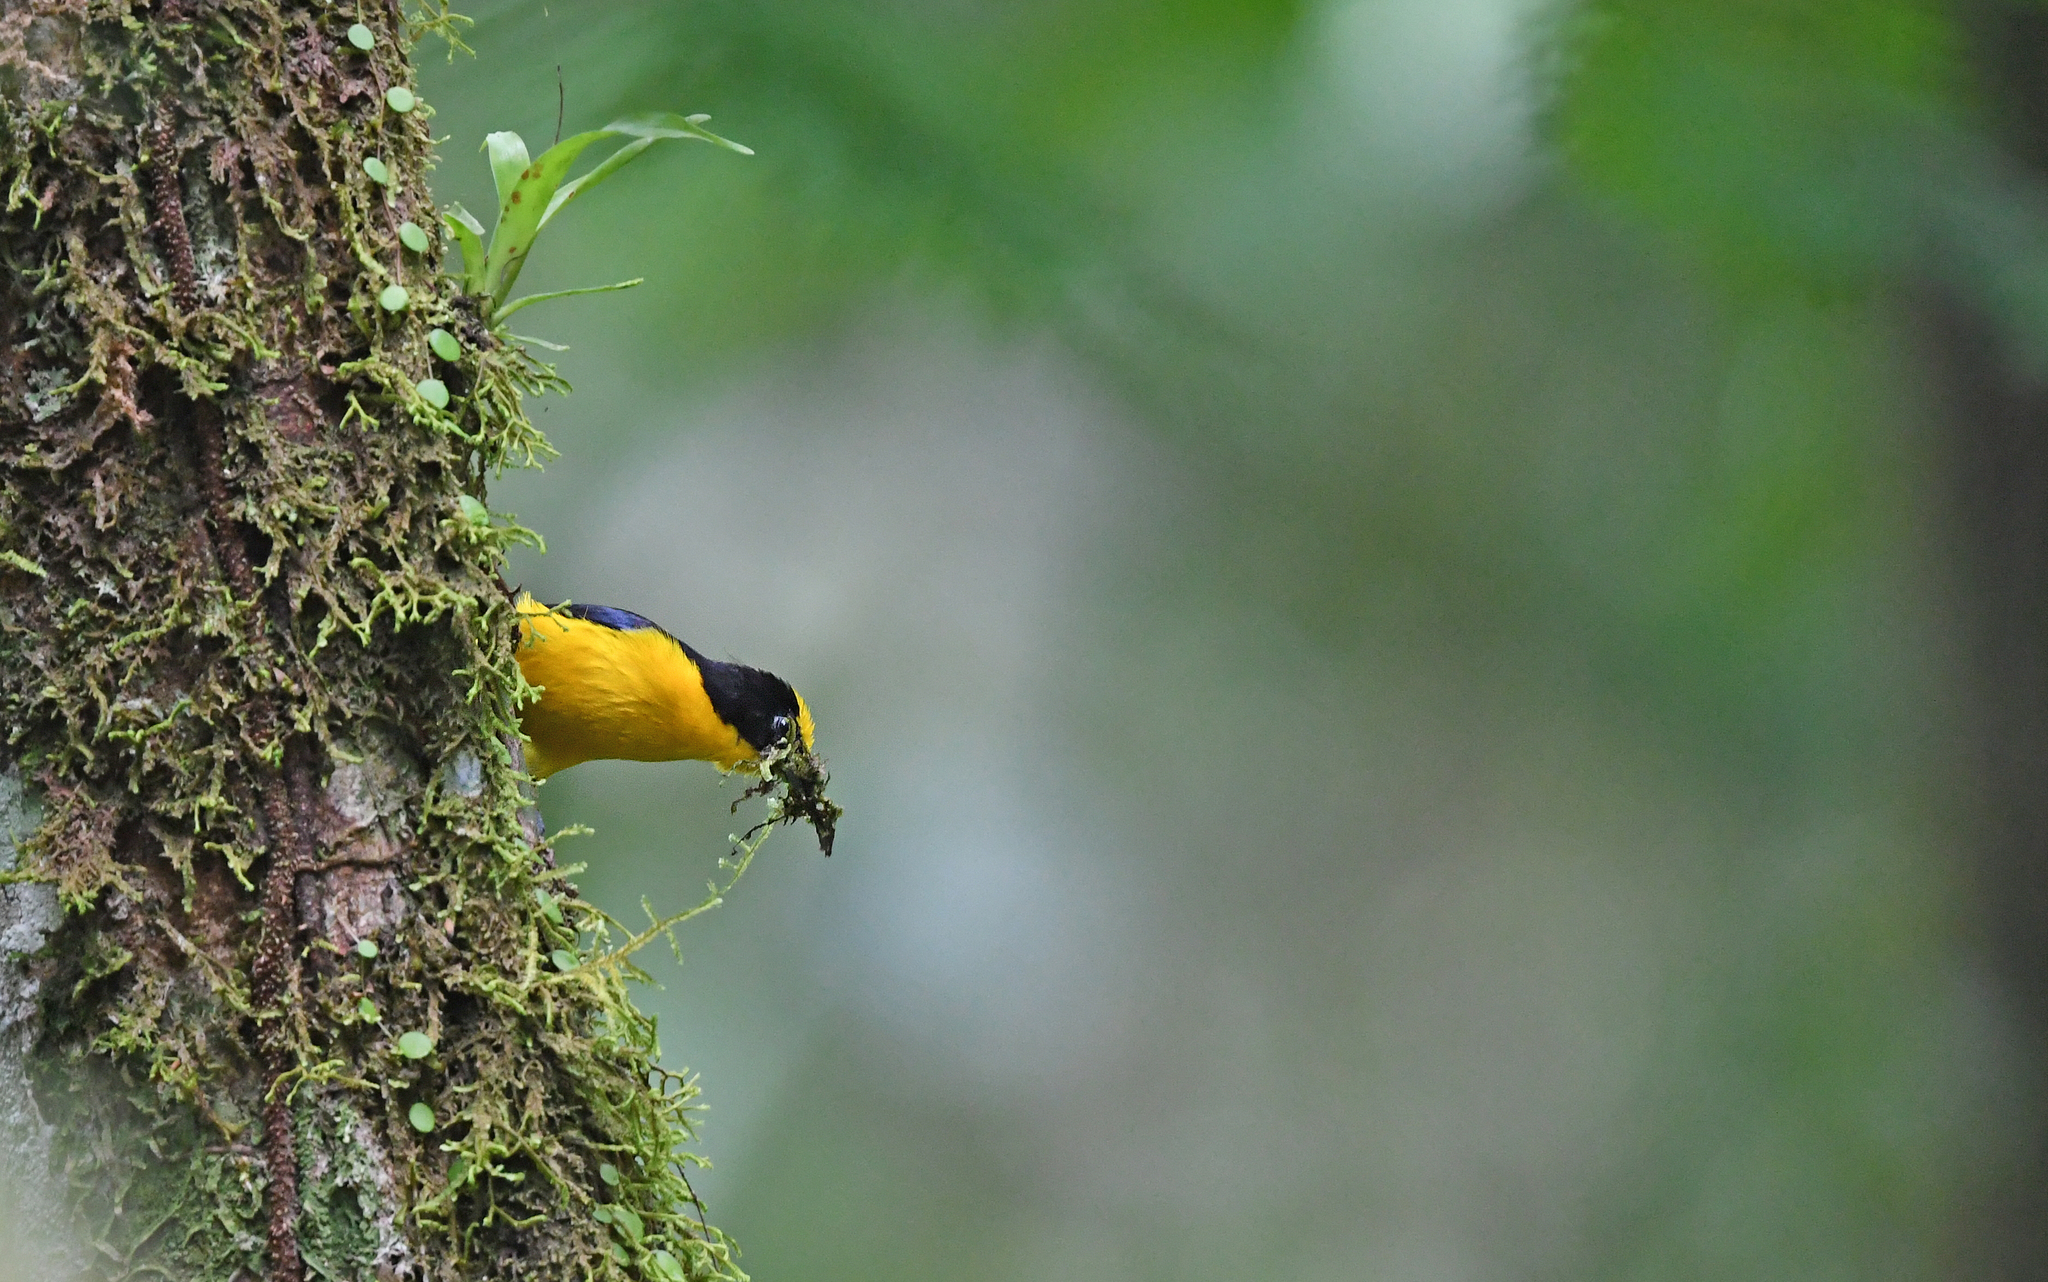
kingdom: Animalia
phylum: Chordata
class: Aves
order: Passeriformes
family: Fringillidae
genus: Euphonia
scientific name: Euphonia laniirostris
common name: Thick-billed euphonia
